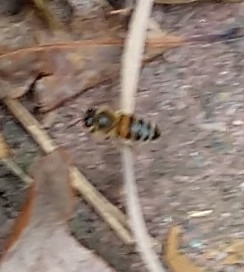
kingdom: Animalia
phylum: Arthropoda
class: Insecta
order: Hymenoptera
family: Apidae
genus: Apis
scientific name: Apis mellifera
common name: Honey bee
